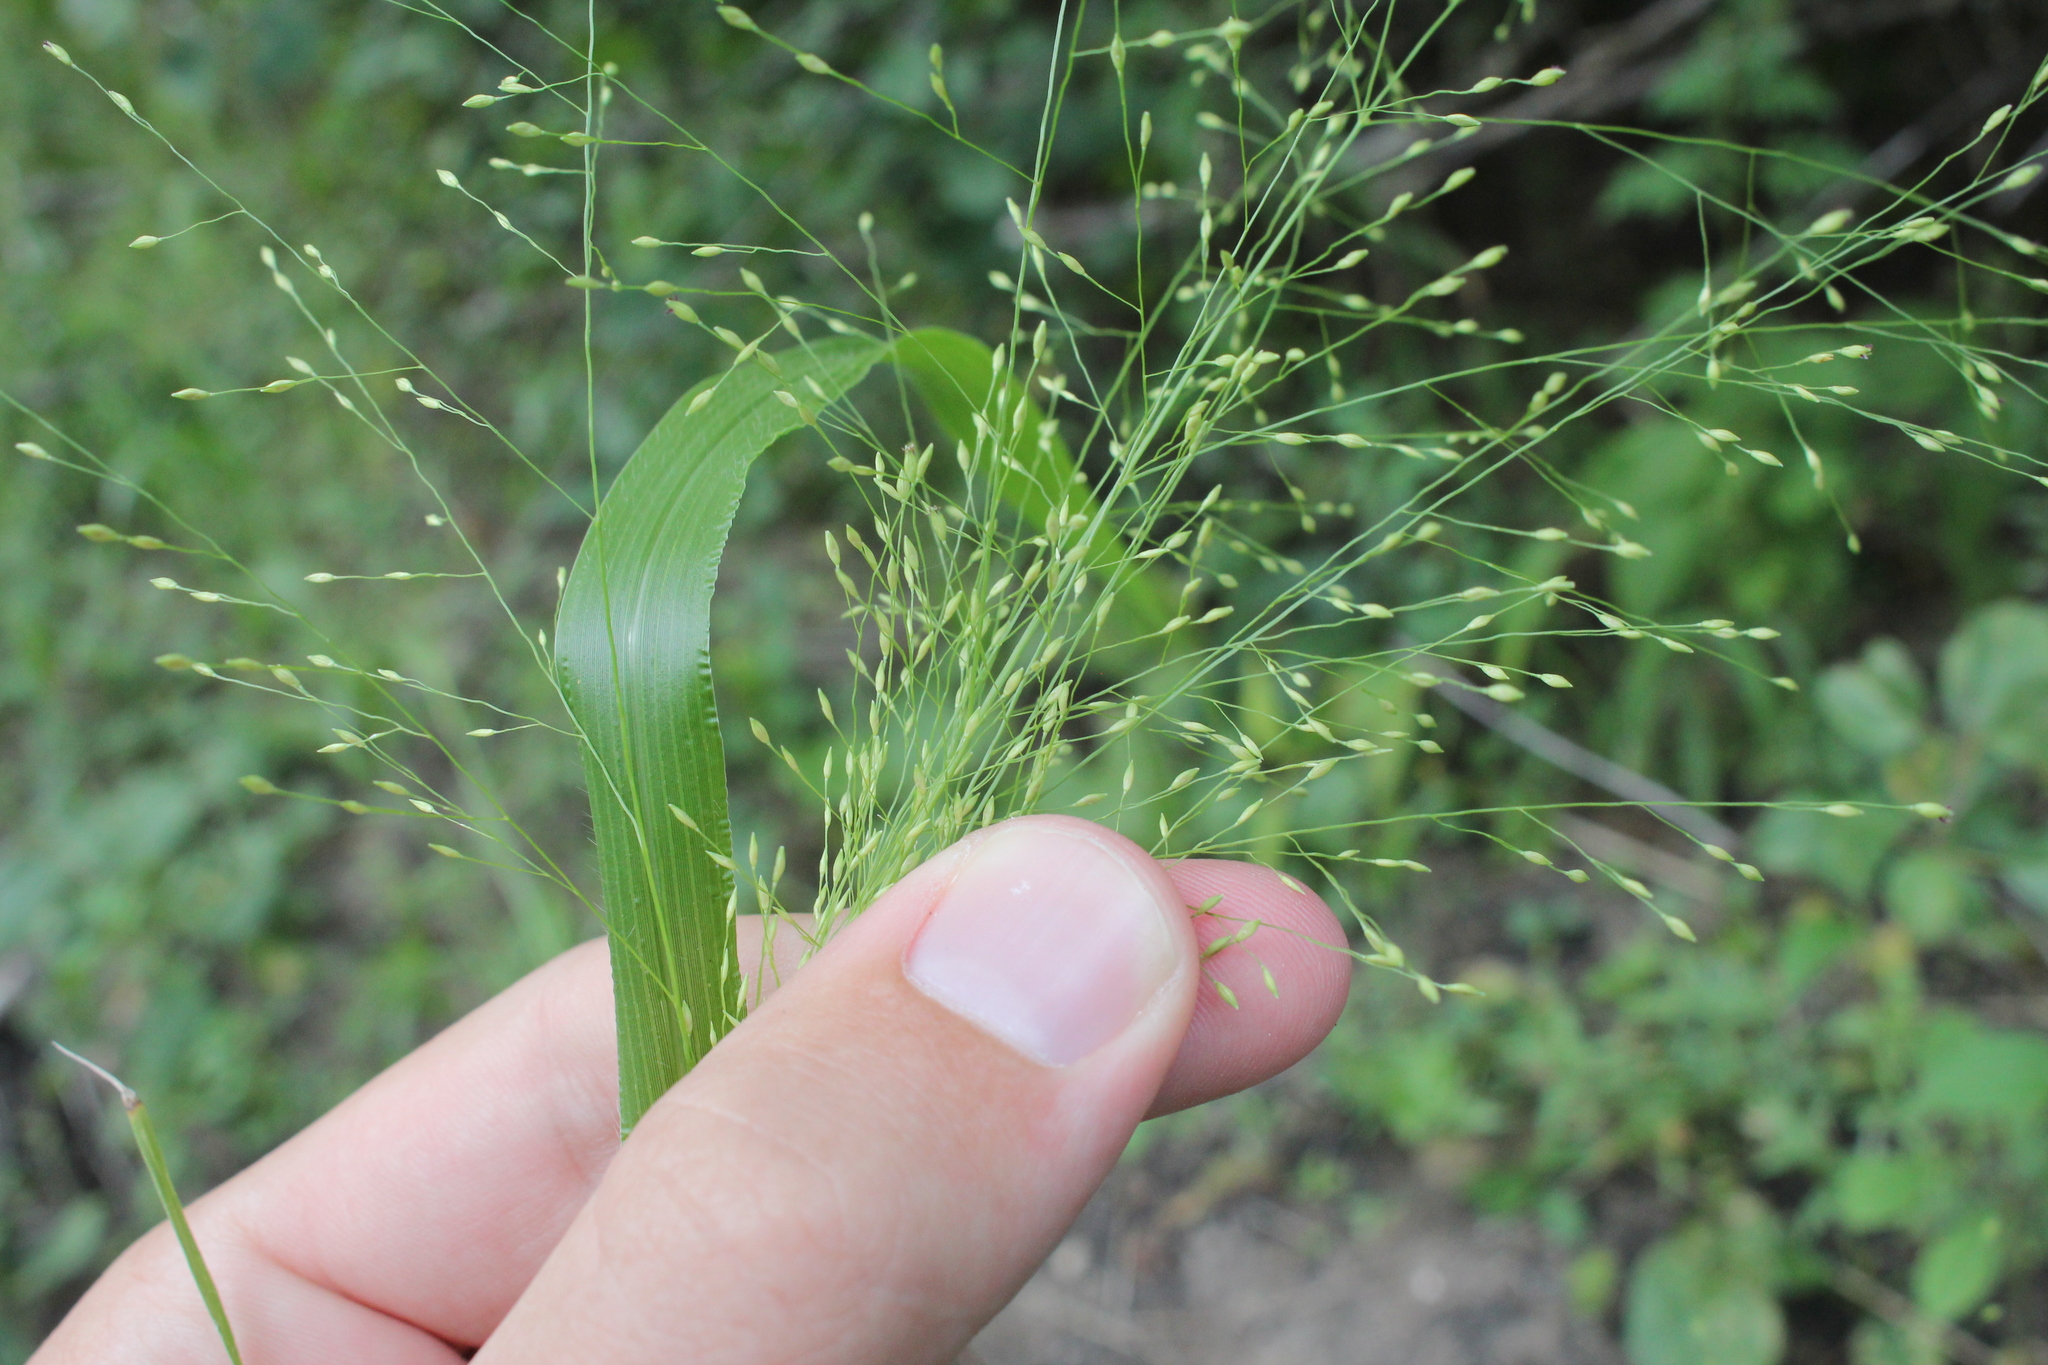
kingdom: Plantae
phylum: Tracheophyta
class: Liliopsida
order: Poales
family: Poaceae
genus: Panicum
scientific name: Panicum capillare
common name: Witch-grass
